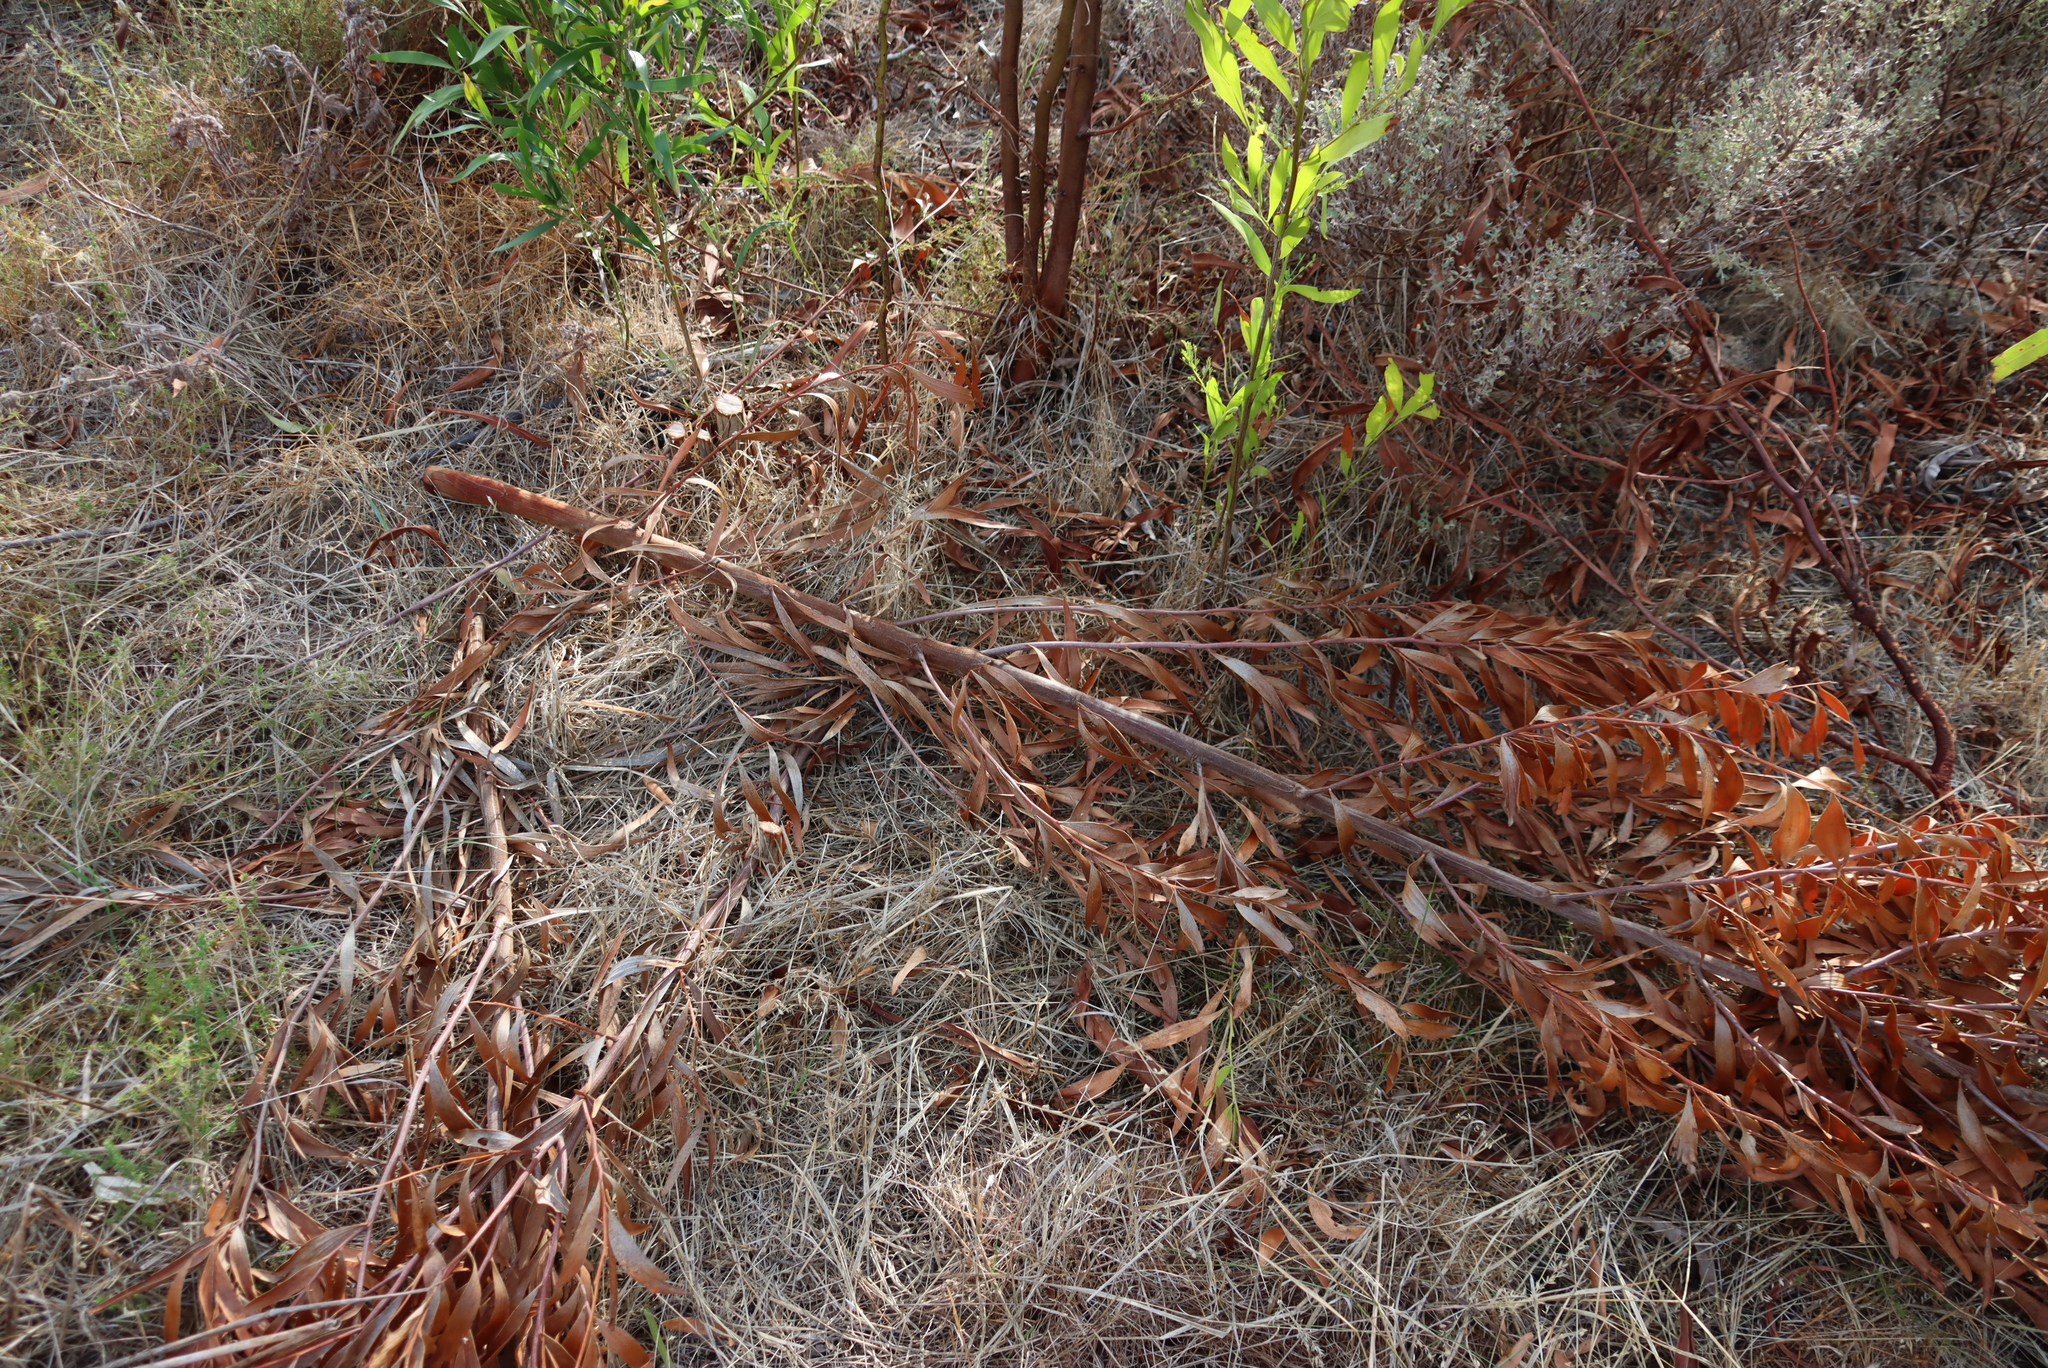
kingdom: Plantae
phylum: Tracheophyta
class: Magnoliopsida
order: Fabales
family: Fabaceae
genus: Acacia
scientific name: Acacia saligna
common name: Orange wattle
